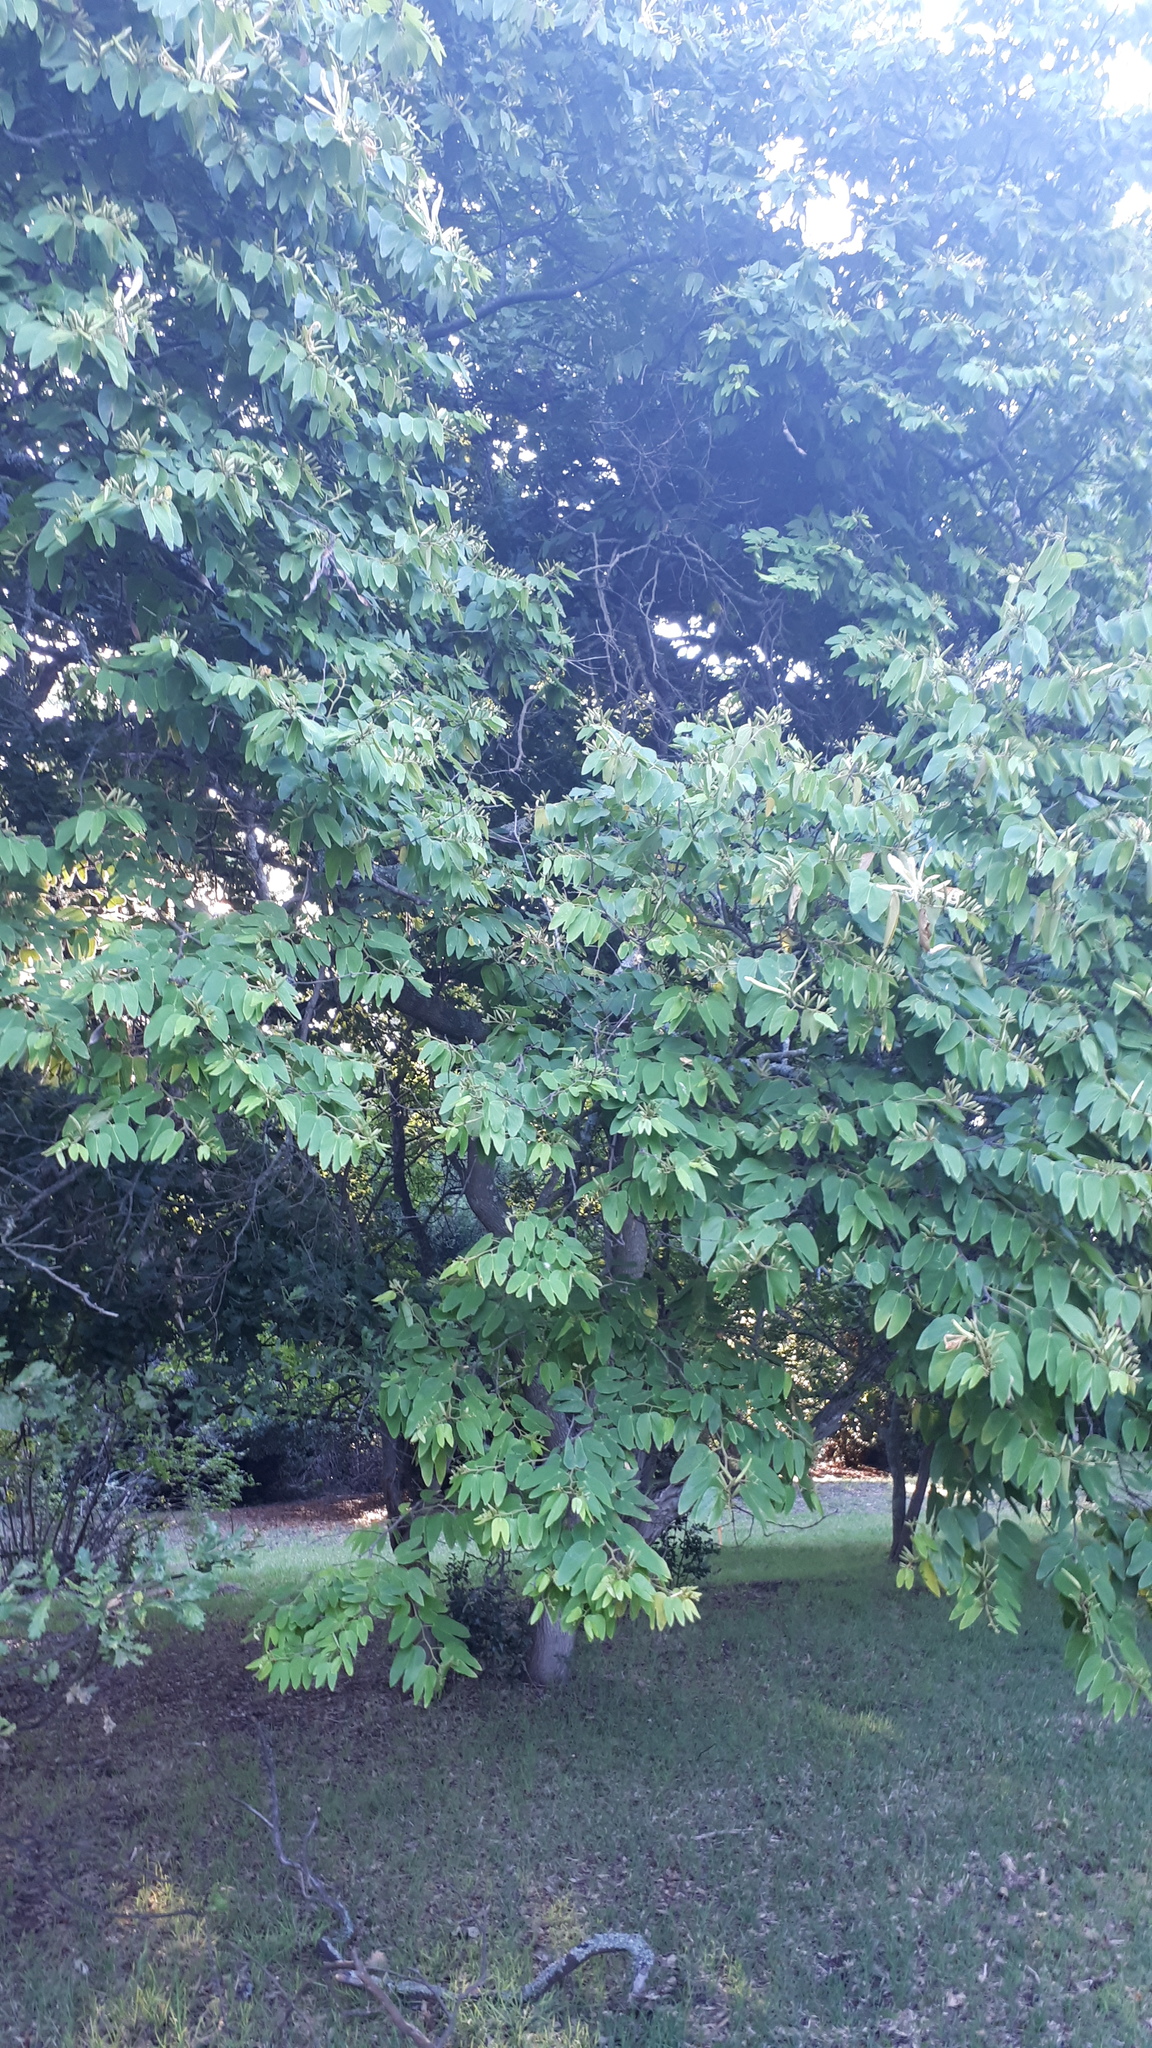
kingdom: Plantae
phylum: Tracheophyta
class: Magnoliopsida
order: Fabales
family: Fabaceae
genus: Bauhinia
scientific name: Bauhinia forficata
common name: Orchid tree
